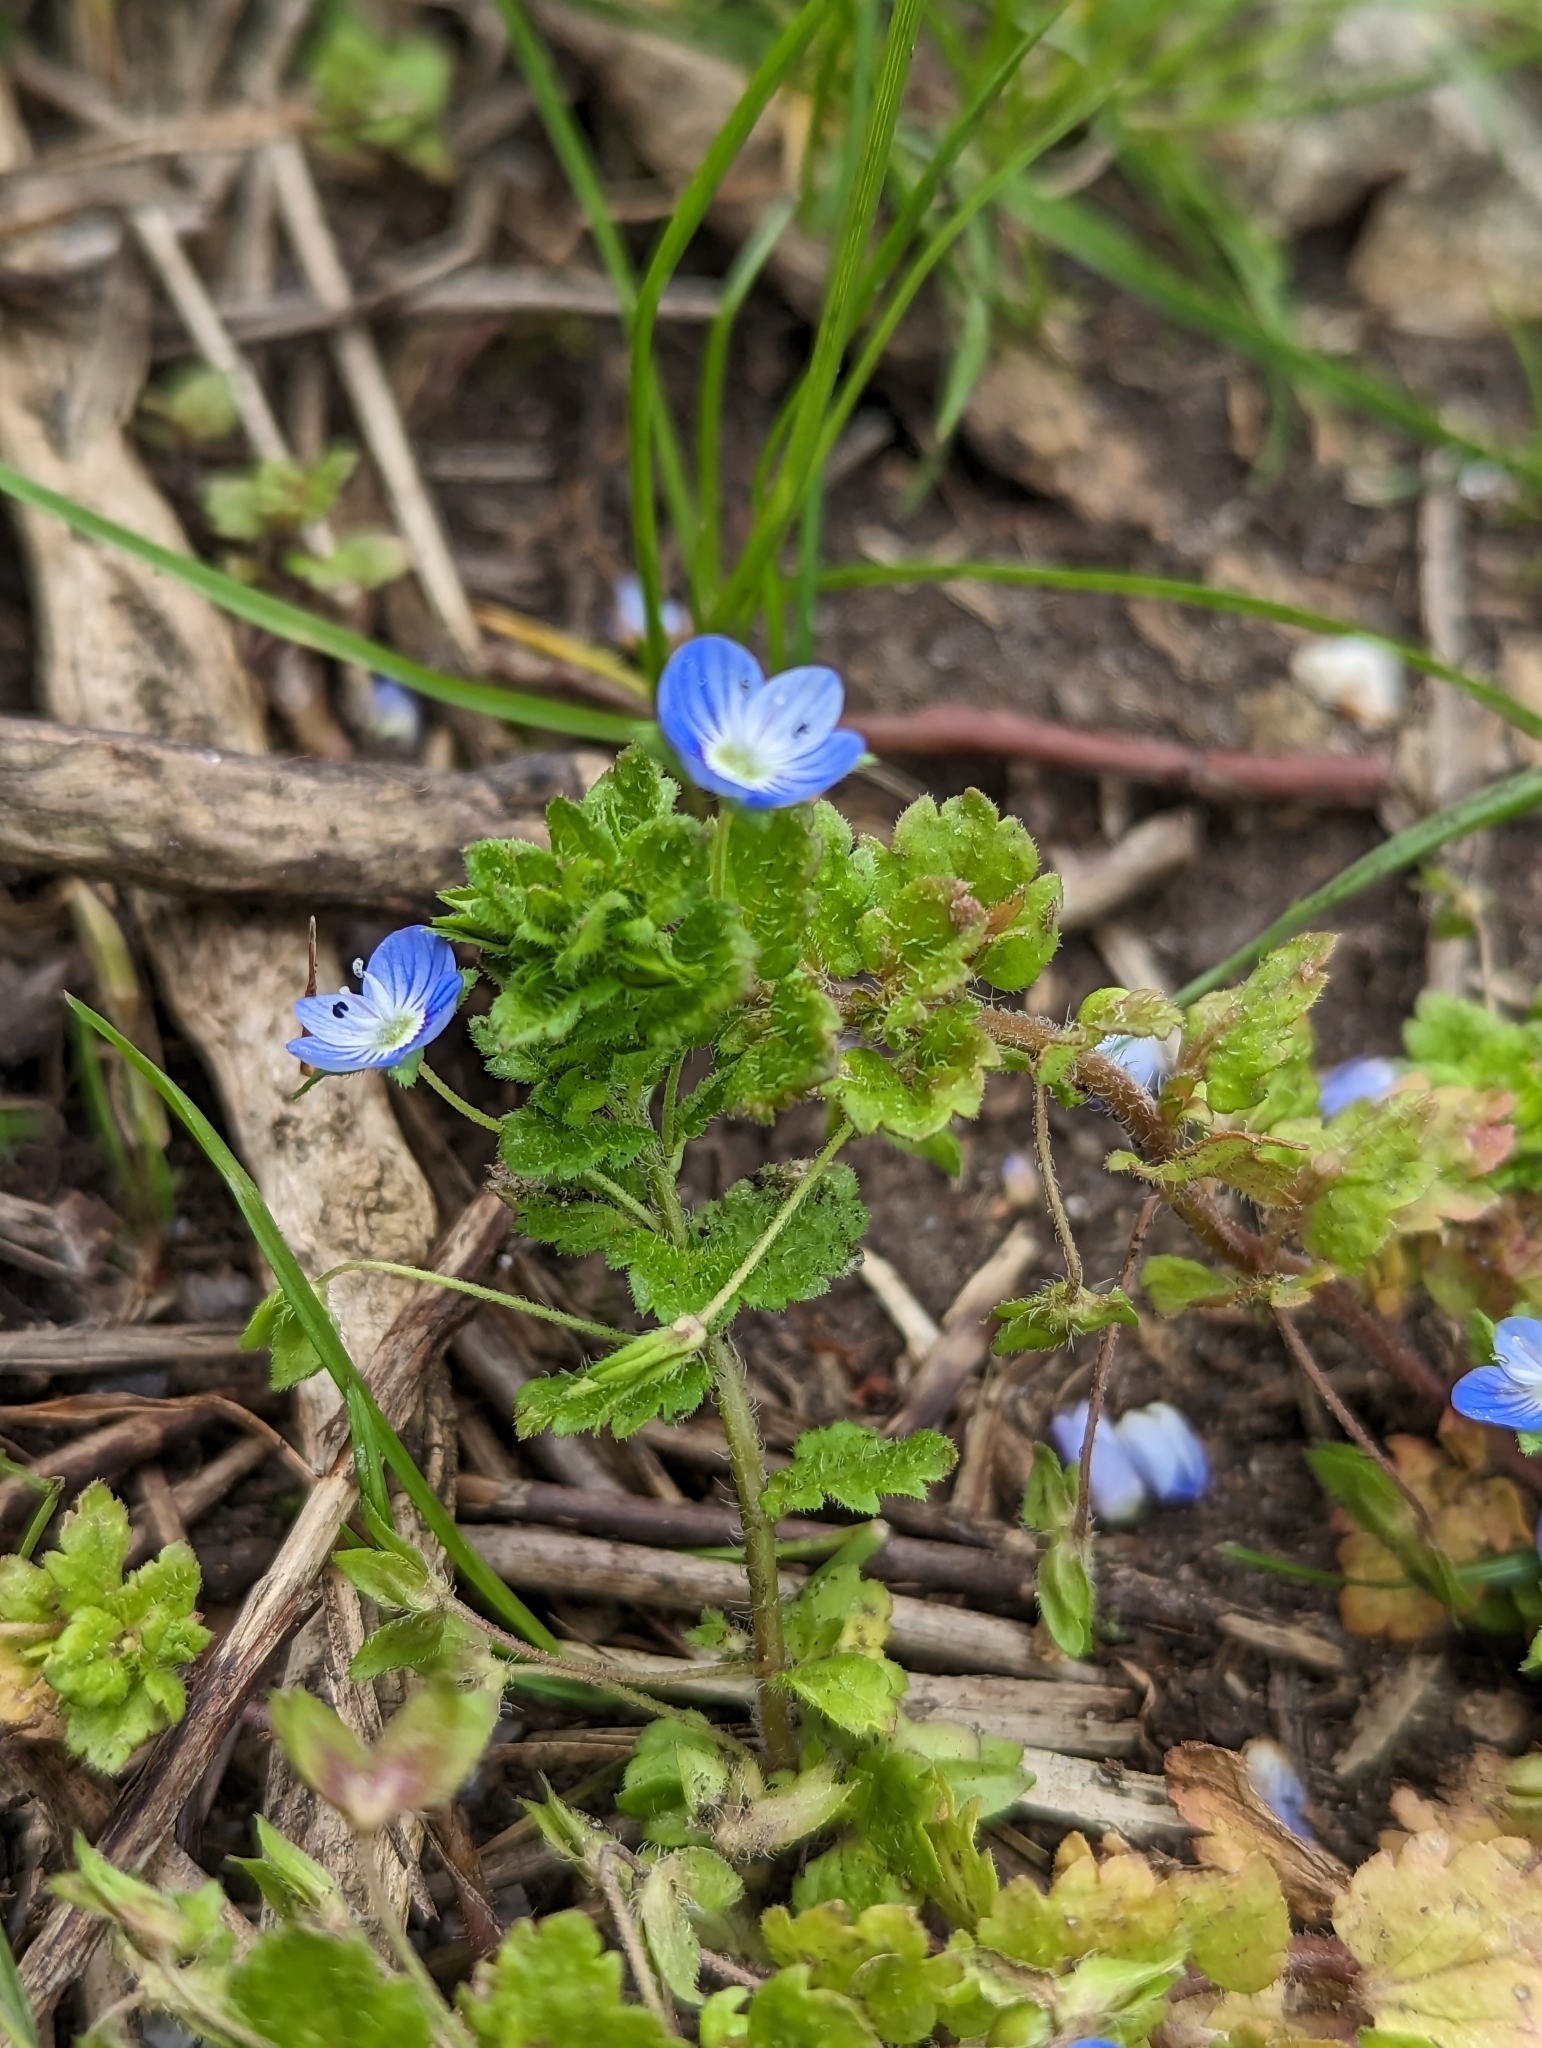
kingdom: Plantae
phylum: Tracheophyta
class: Magnoliopsida
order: Lamiales
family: Plantaginaceae
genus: Veronica
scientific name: Veronica persica
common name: Common field-speedwell
